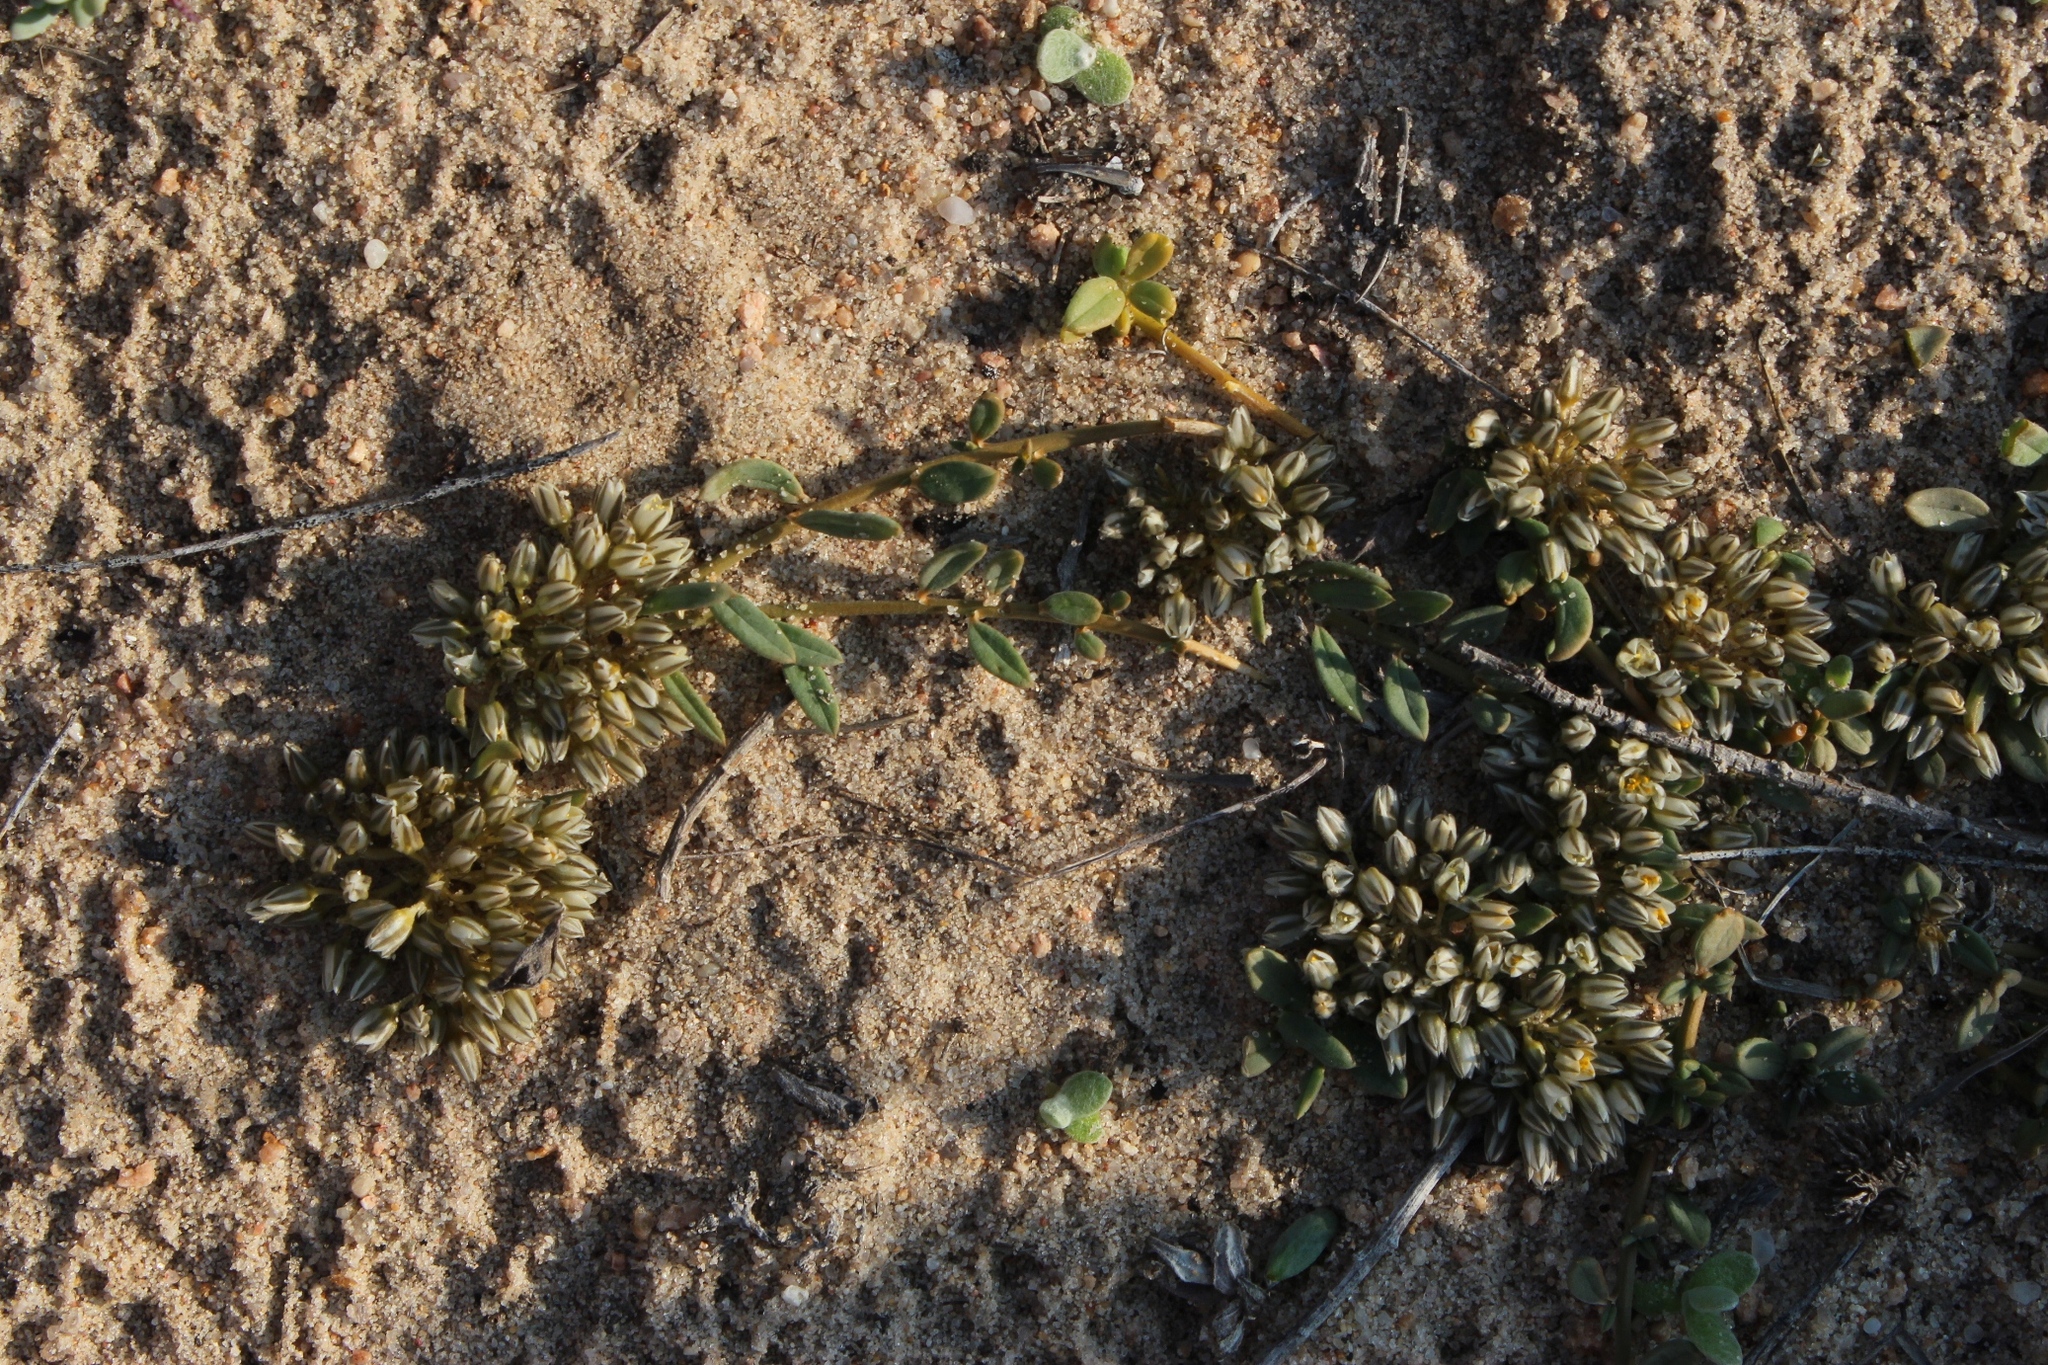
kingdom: Plantae
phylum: Tracheophyta
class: Magnoliopsida
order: Caryophyllales
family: Limeaceae
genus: Limeum
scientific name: Limeum africanum
